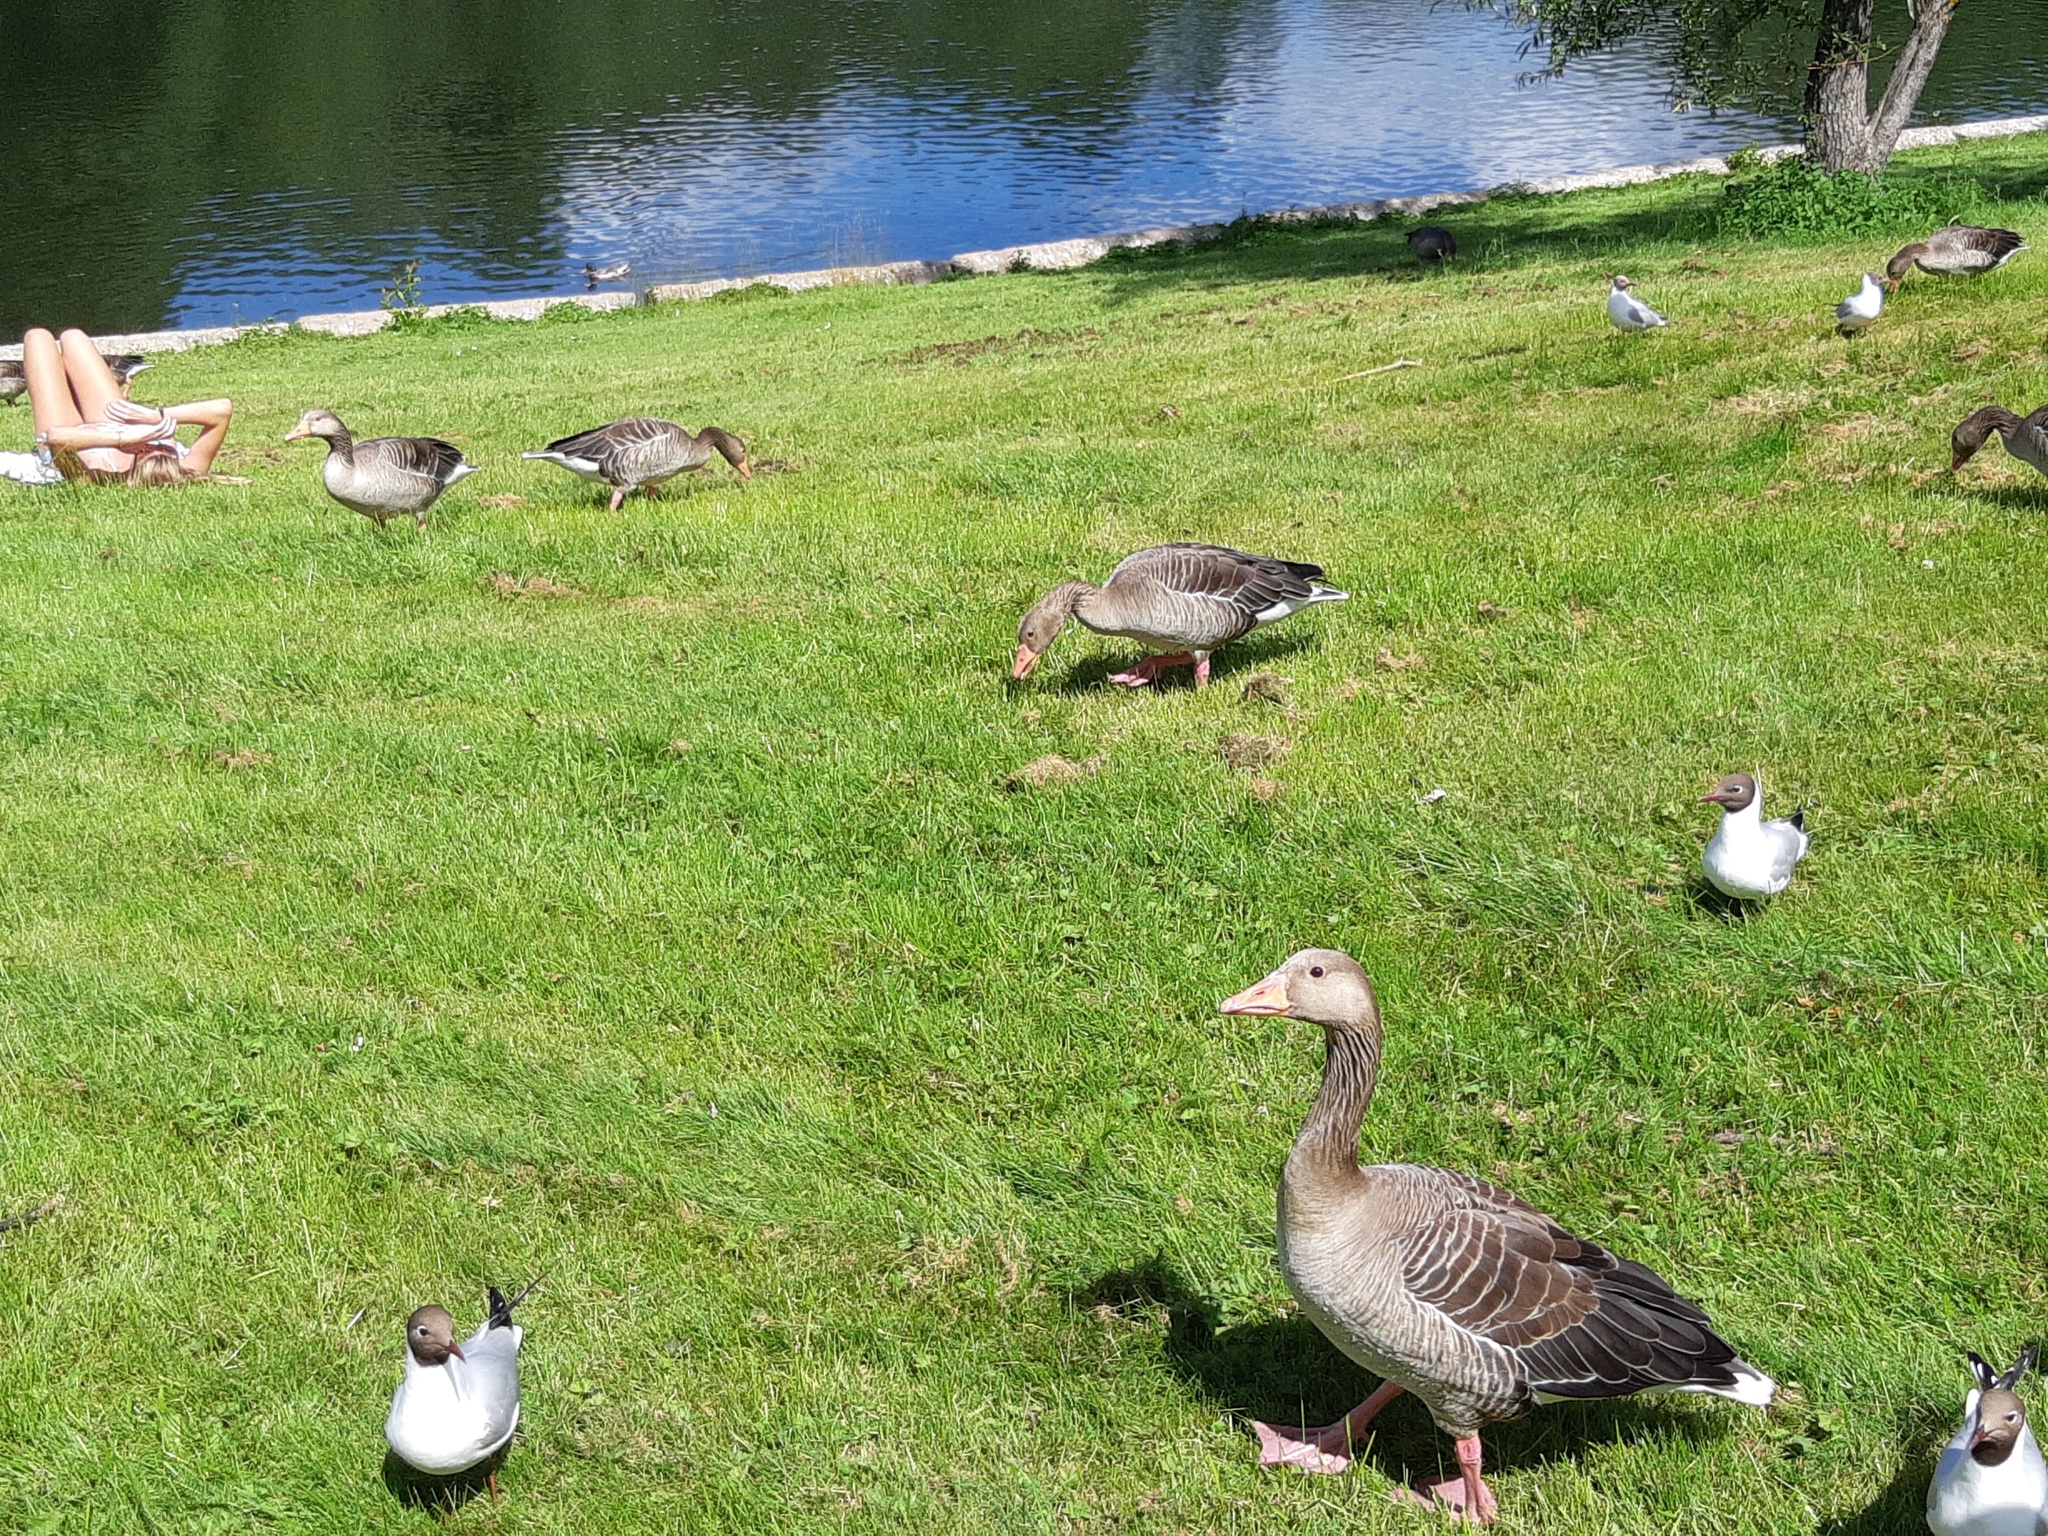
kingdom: Animalia
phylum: Chordata
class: Aves
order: Charadriiformes
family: Laridae
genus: Chroicocephalus
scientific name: Chroicocephalus ridibundus
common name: Black-headed gull
